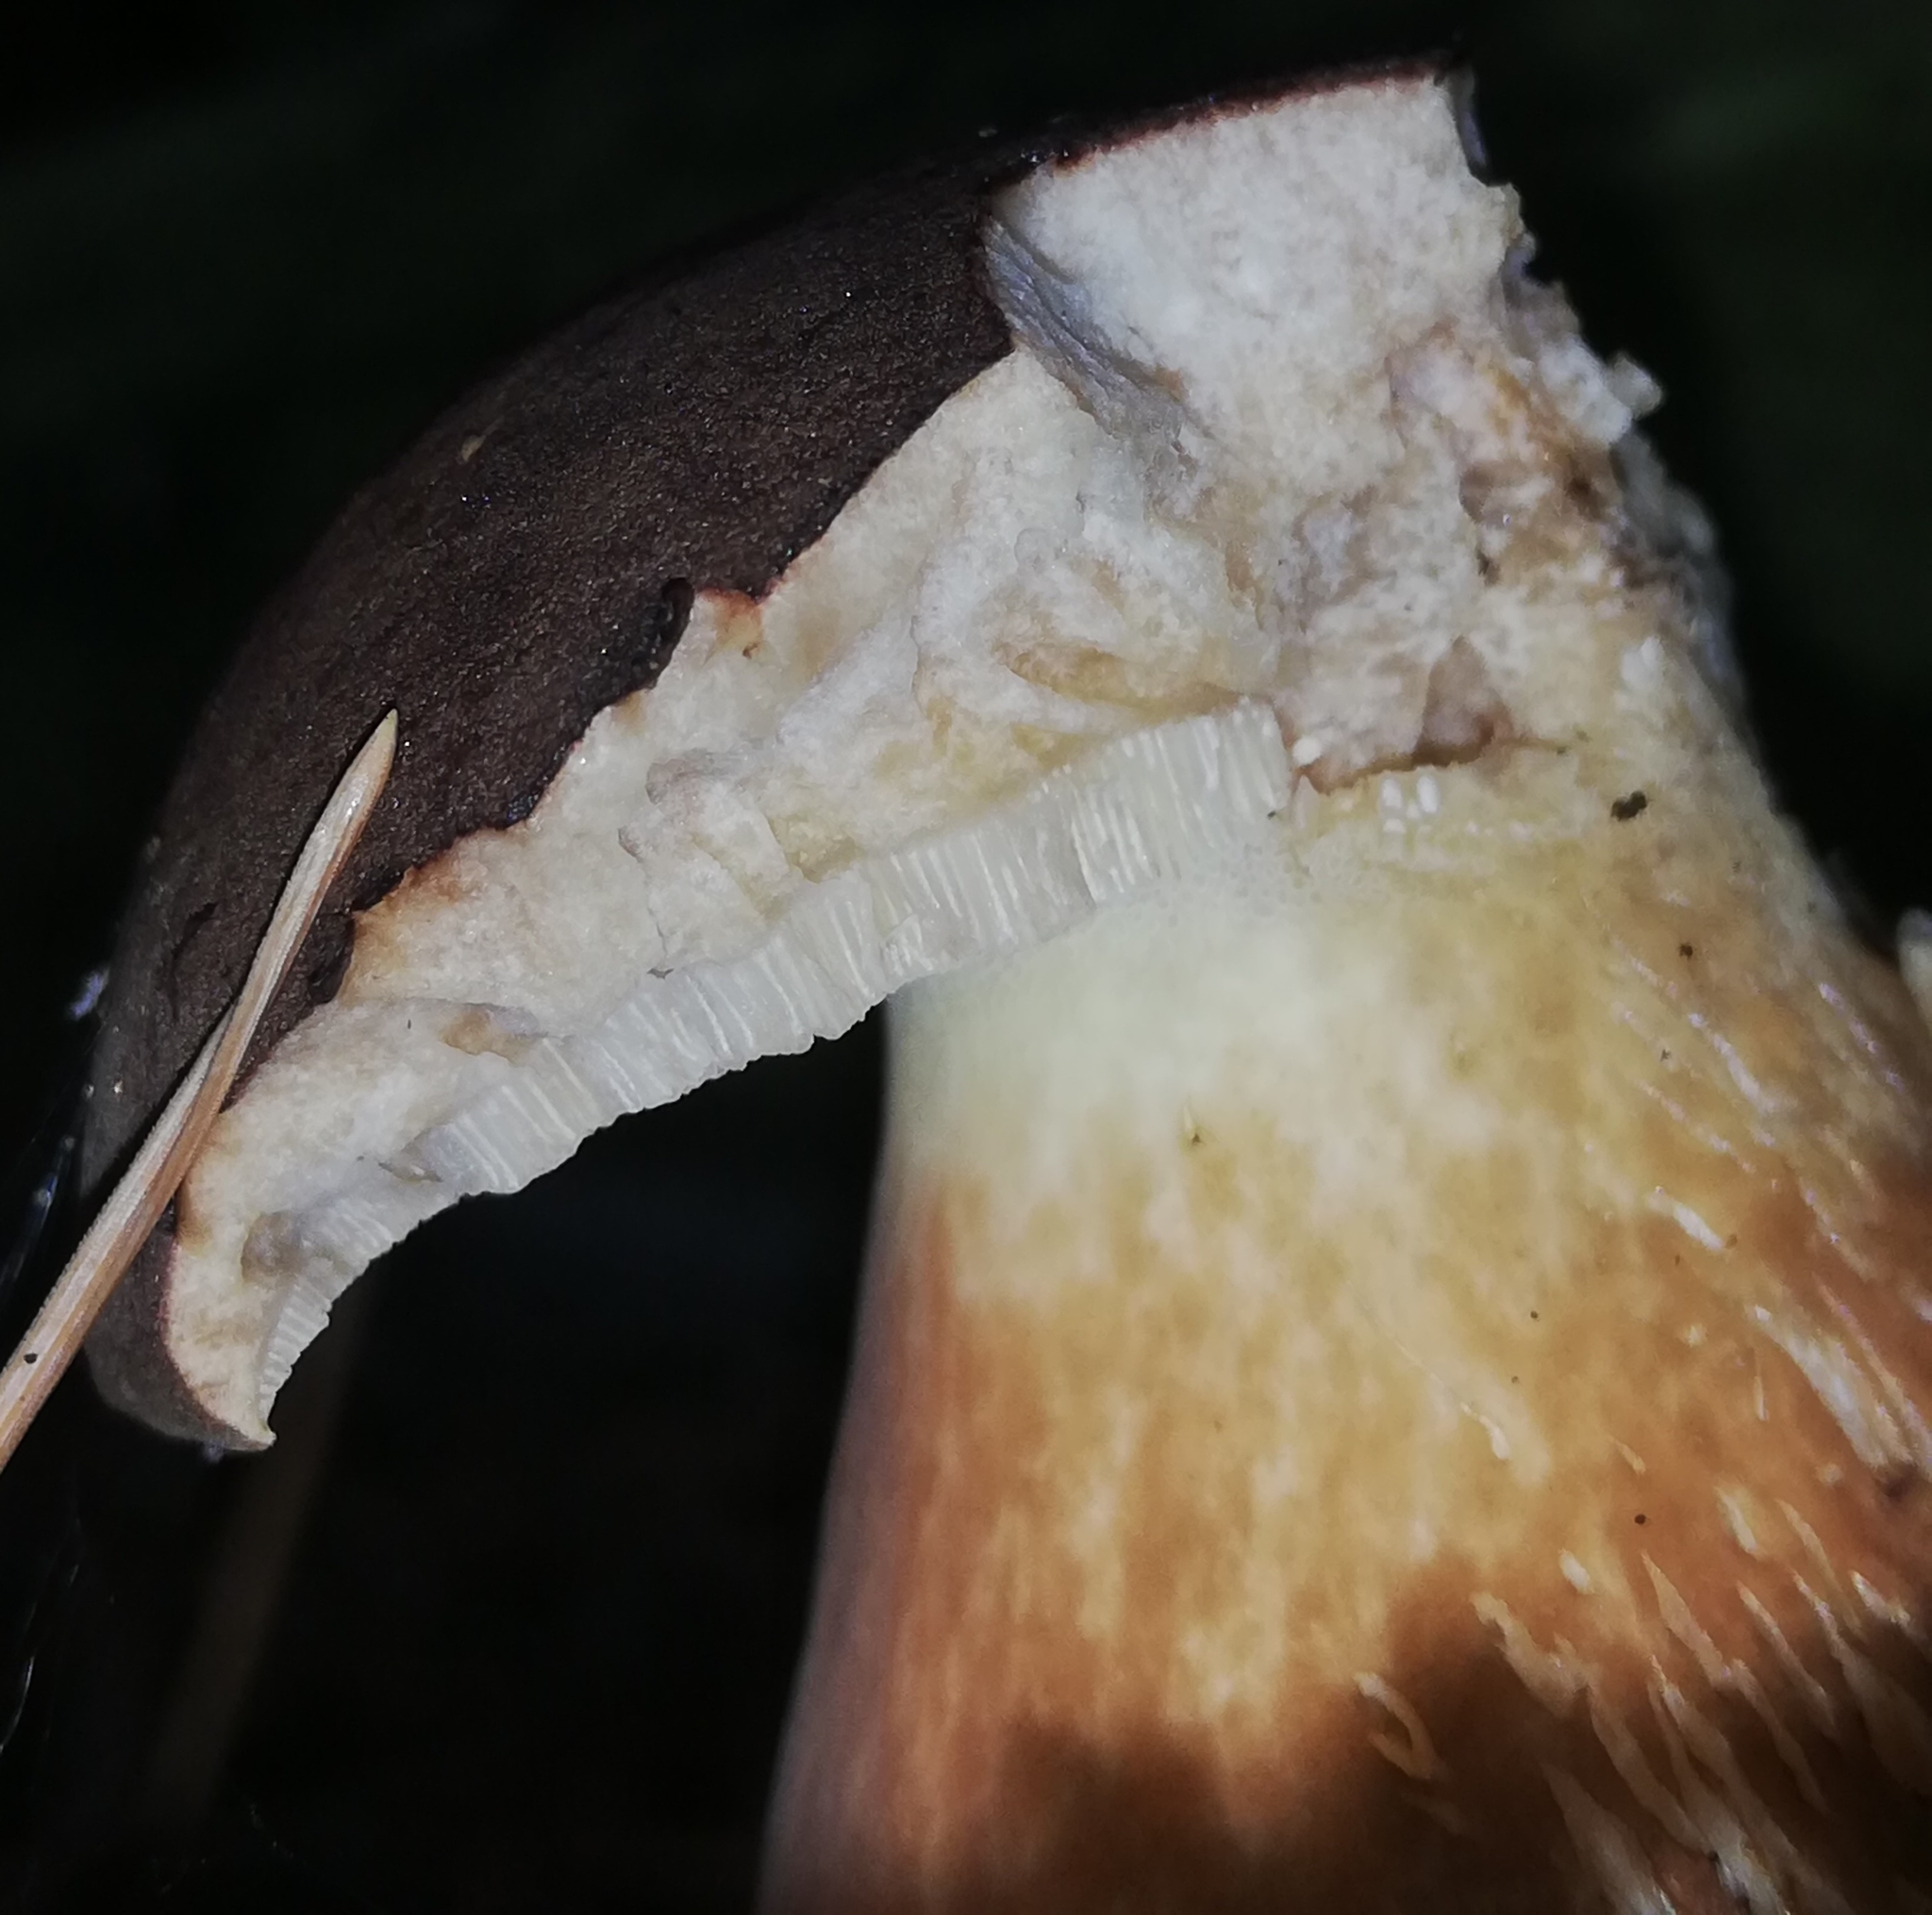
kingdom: Fungi
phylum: Basidiomycota
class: Agaricomycetes
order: Boletales
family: Boletaceae
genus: Imleria
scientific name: Imleria badia
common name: Bay bolete
